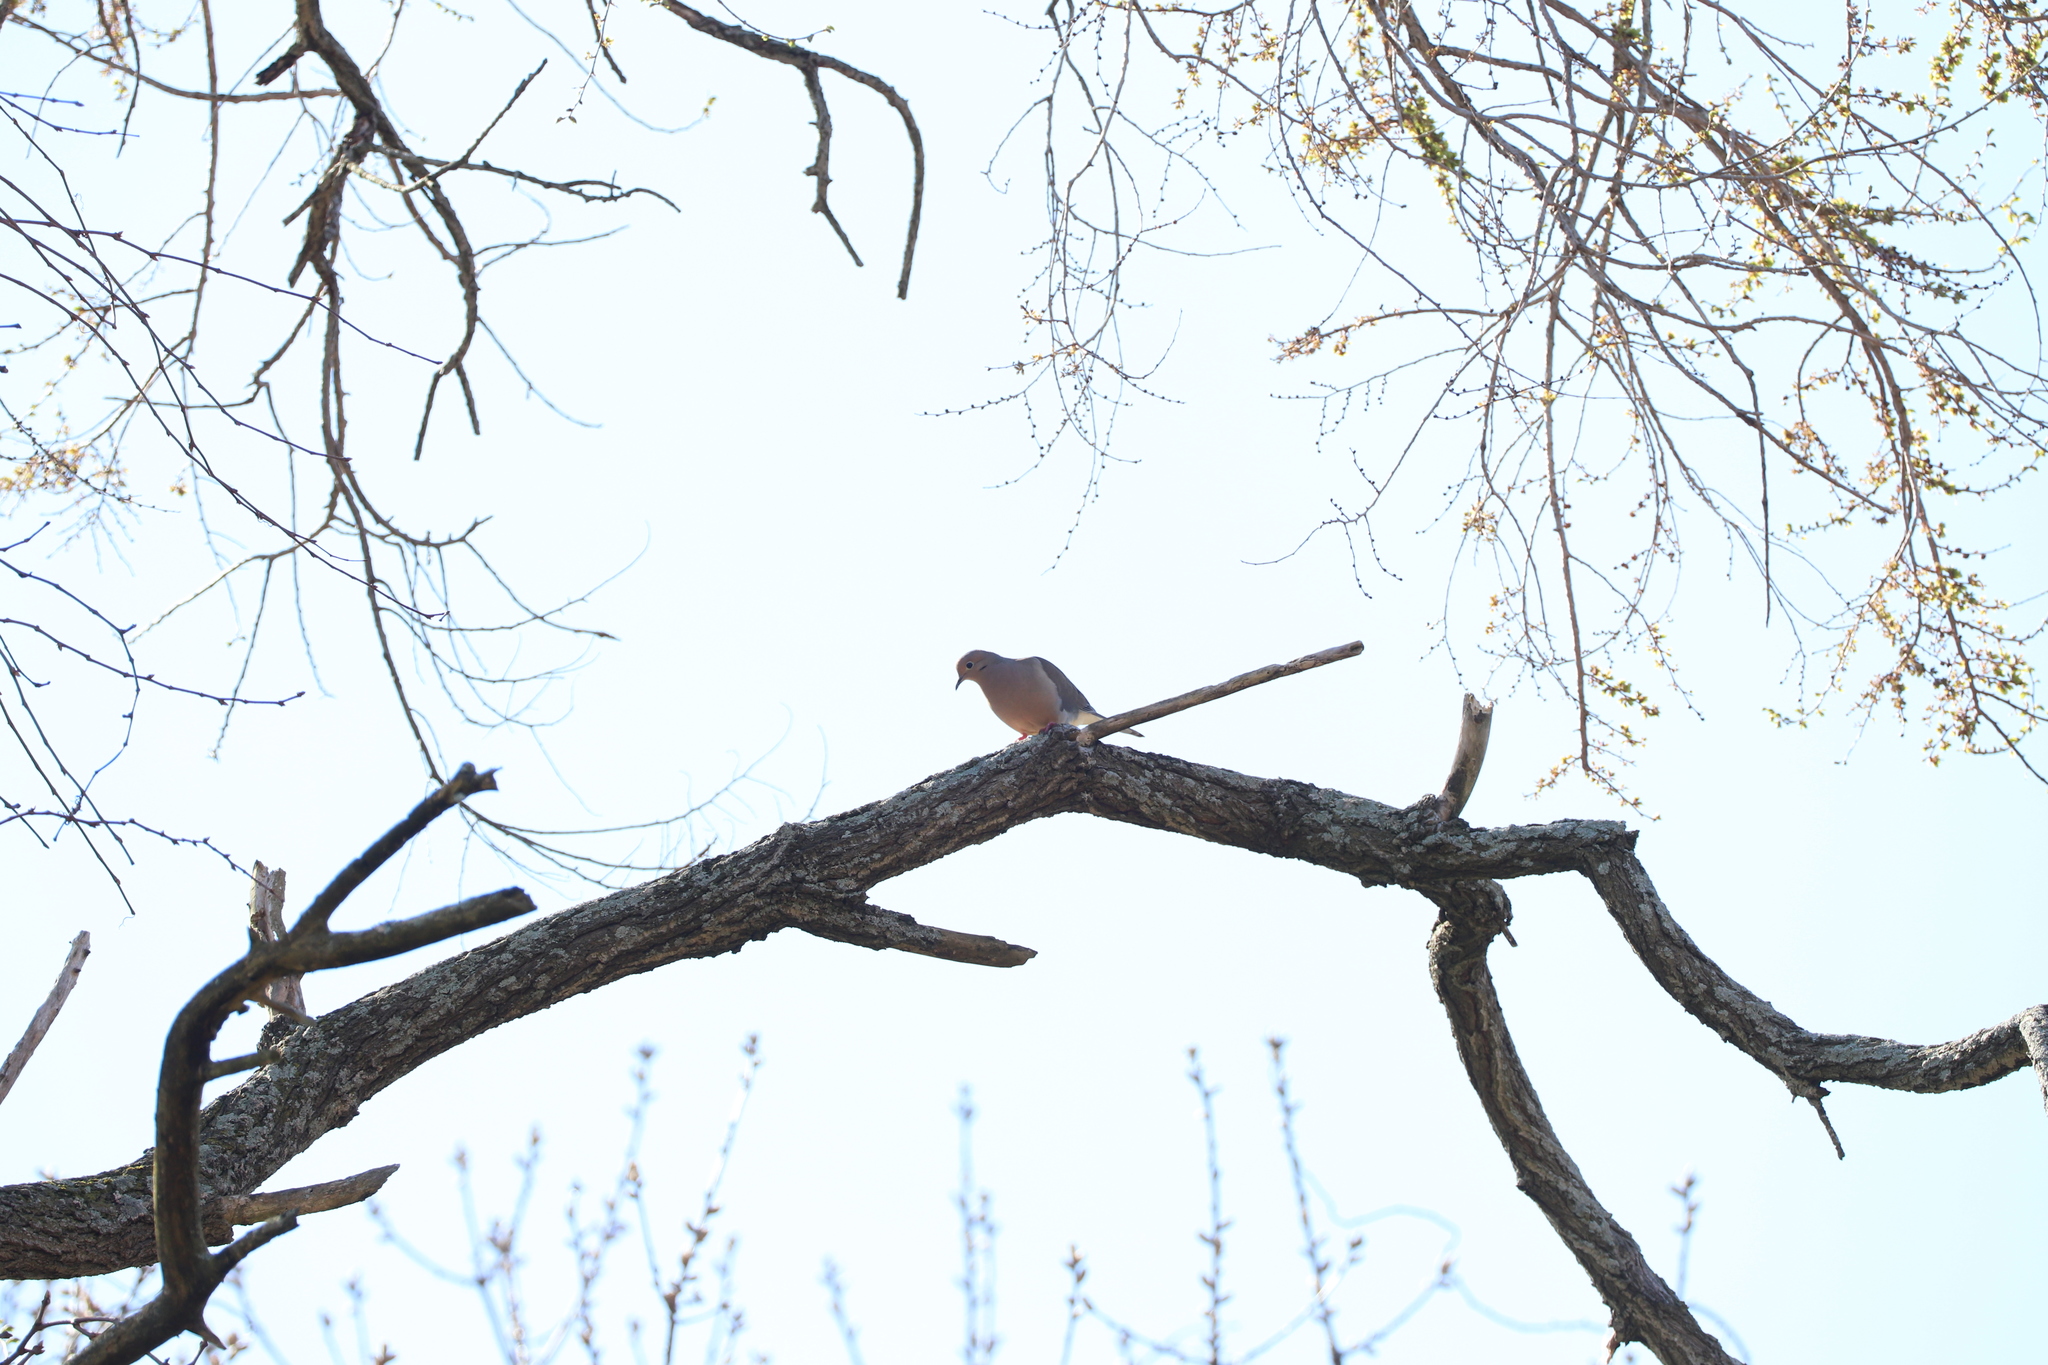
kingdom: Animalia
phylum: Chordata
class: Aves
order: Columbiformes
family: Columbidae
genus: Zenaida
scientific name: Zenaida macroura
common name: Mourning dove
